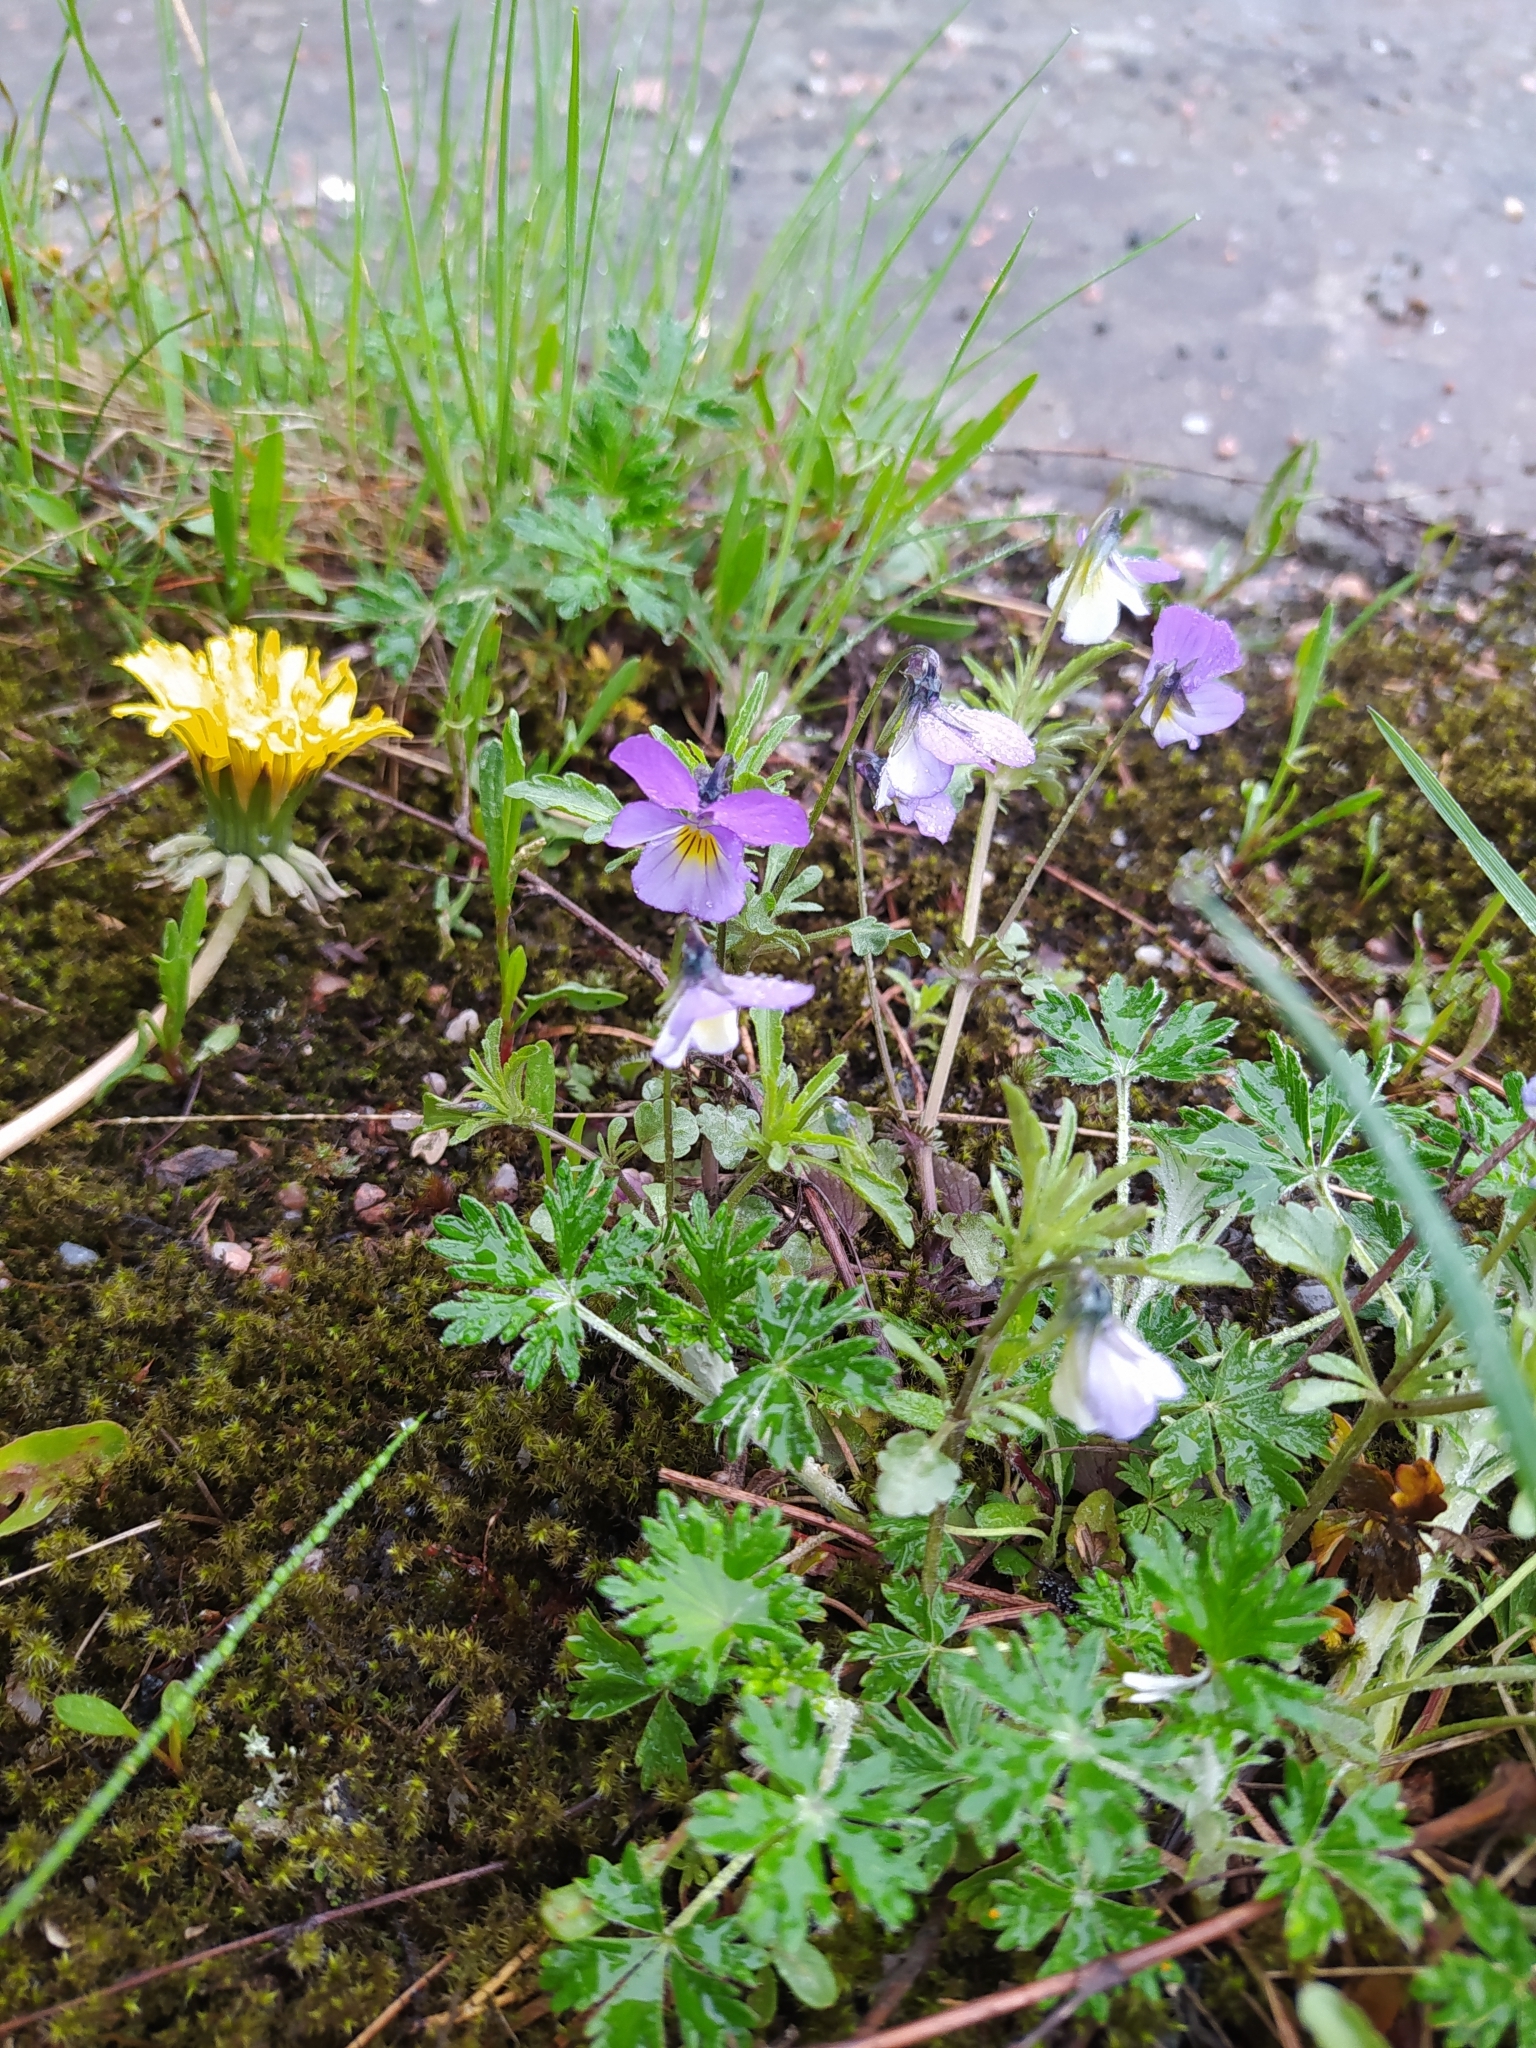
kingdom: Plantae
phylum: Tracheophyta
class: Magnoliopsida
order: Malpighiales
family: Violaceae
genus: Viola
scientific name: Viola tricolor
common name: Pansy
